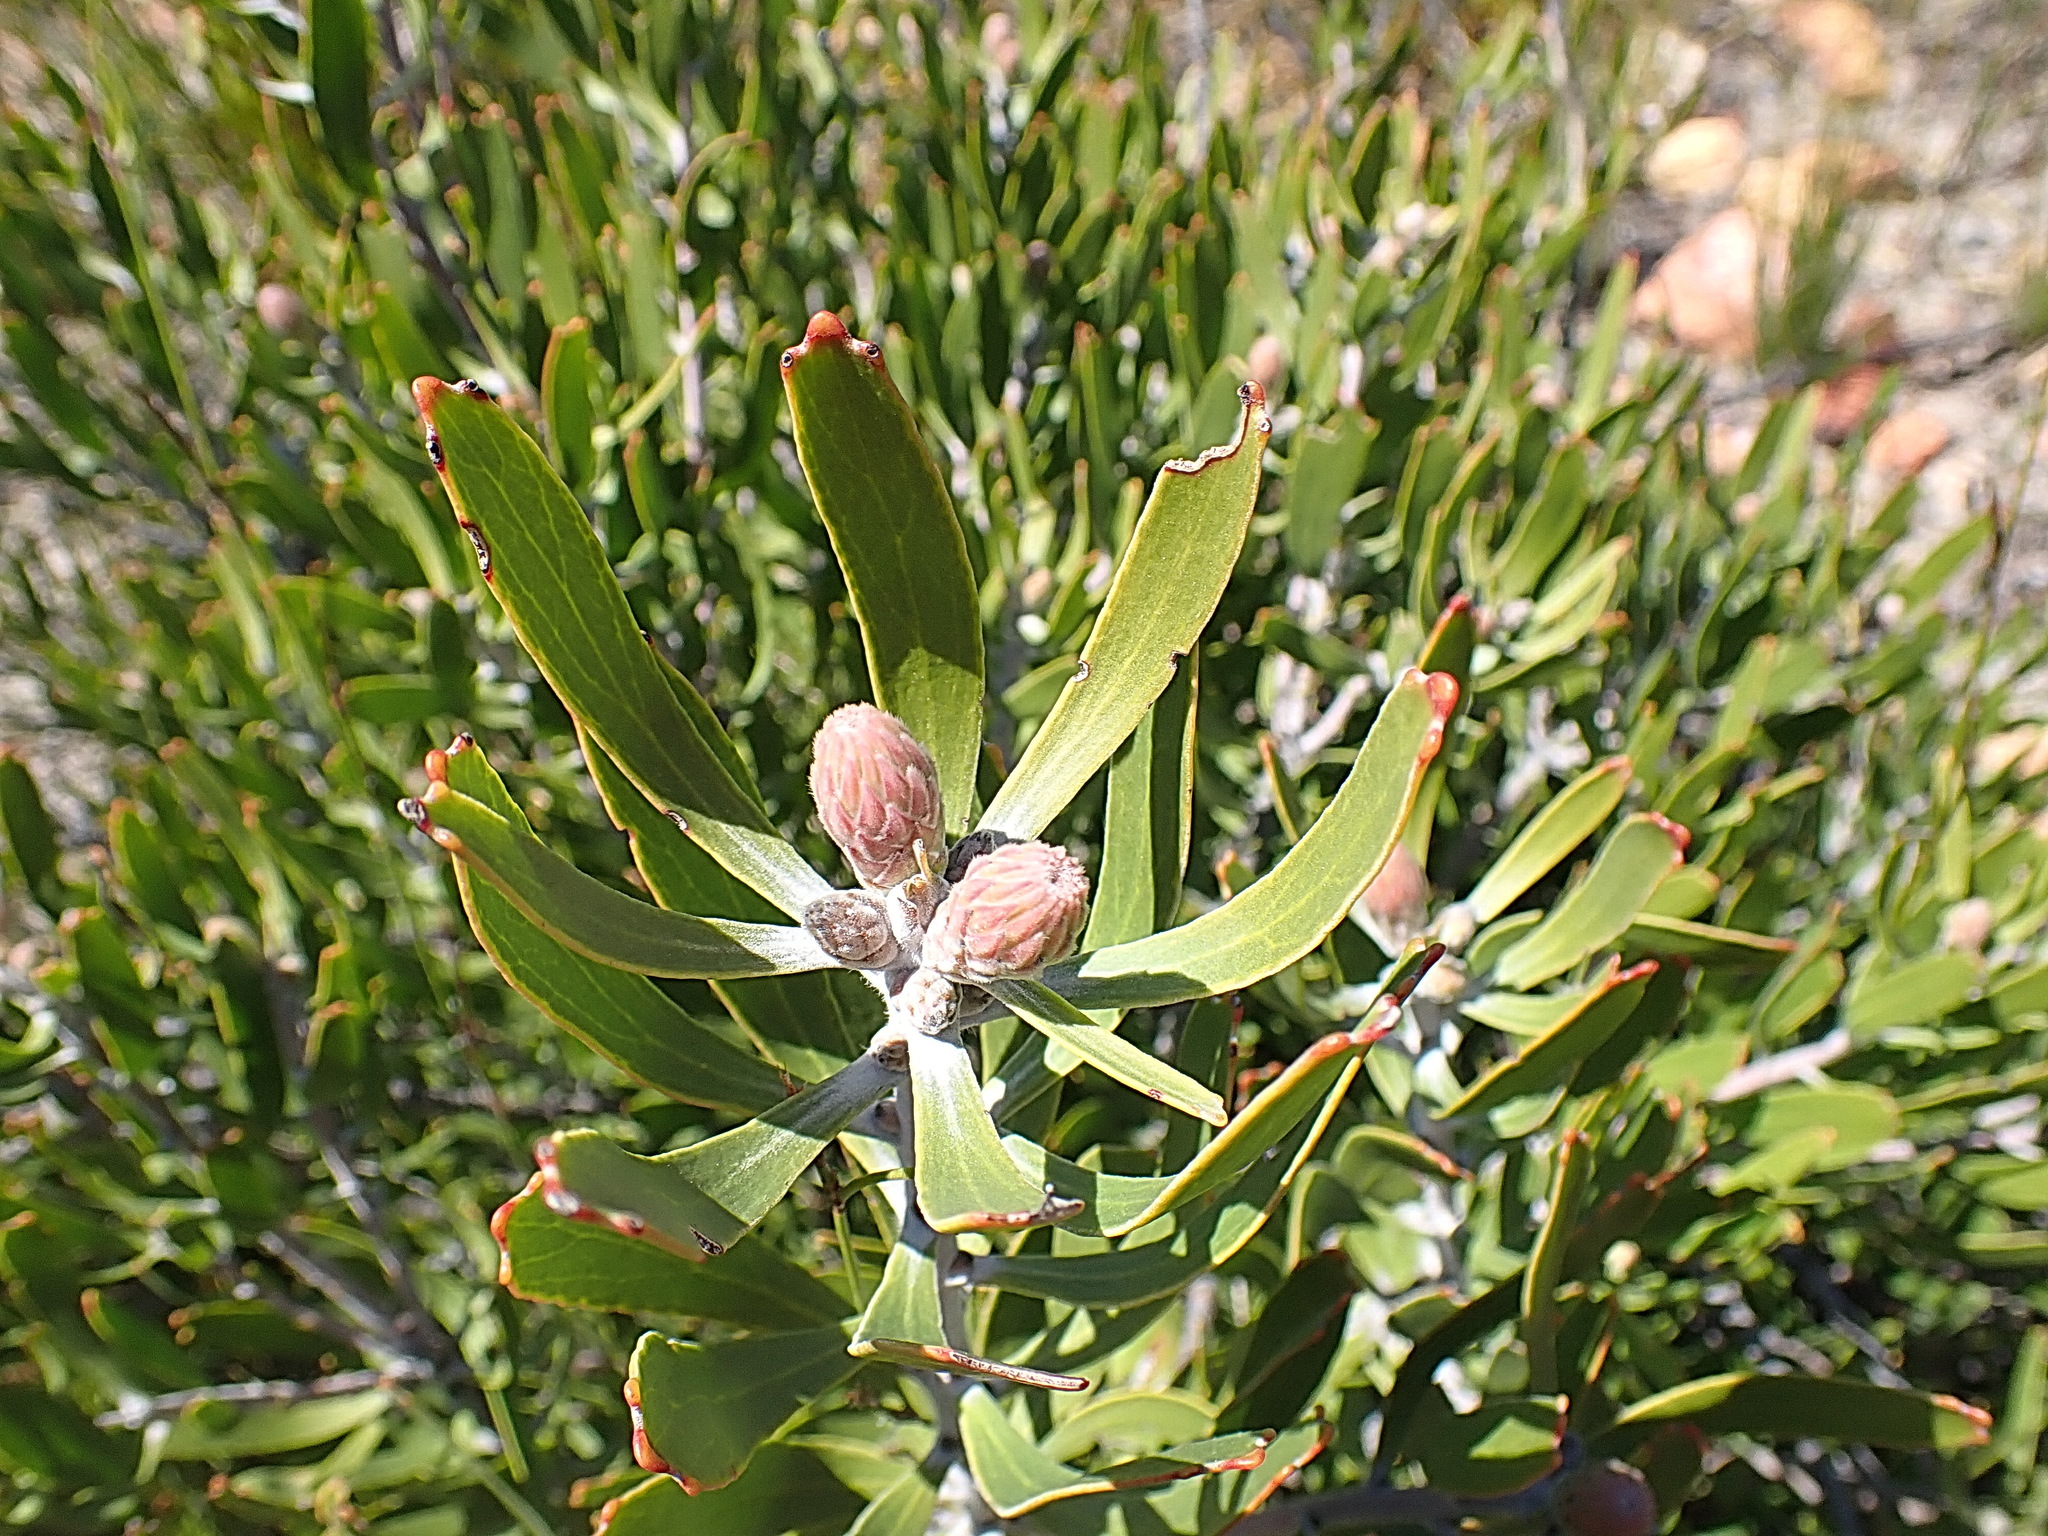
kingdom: Plantae
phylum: Tracheophyta
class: Magnoliopsida
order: Proteales
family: Proteaceae
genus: Leucospermum
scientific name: Leucospermum cuneiforme
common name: Common pincushion
